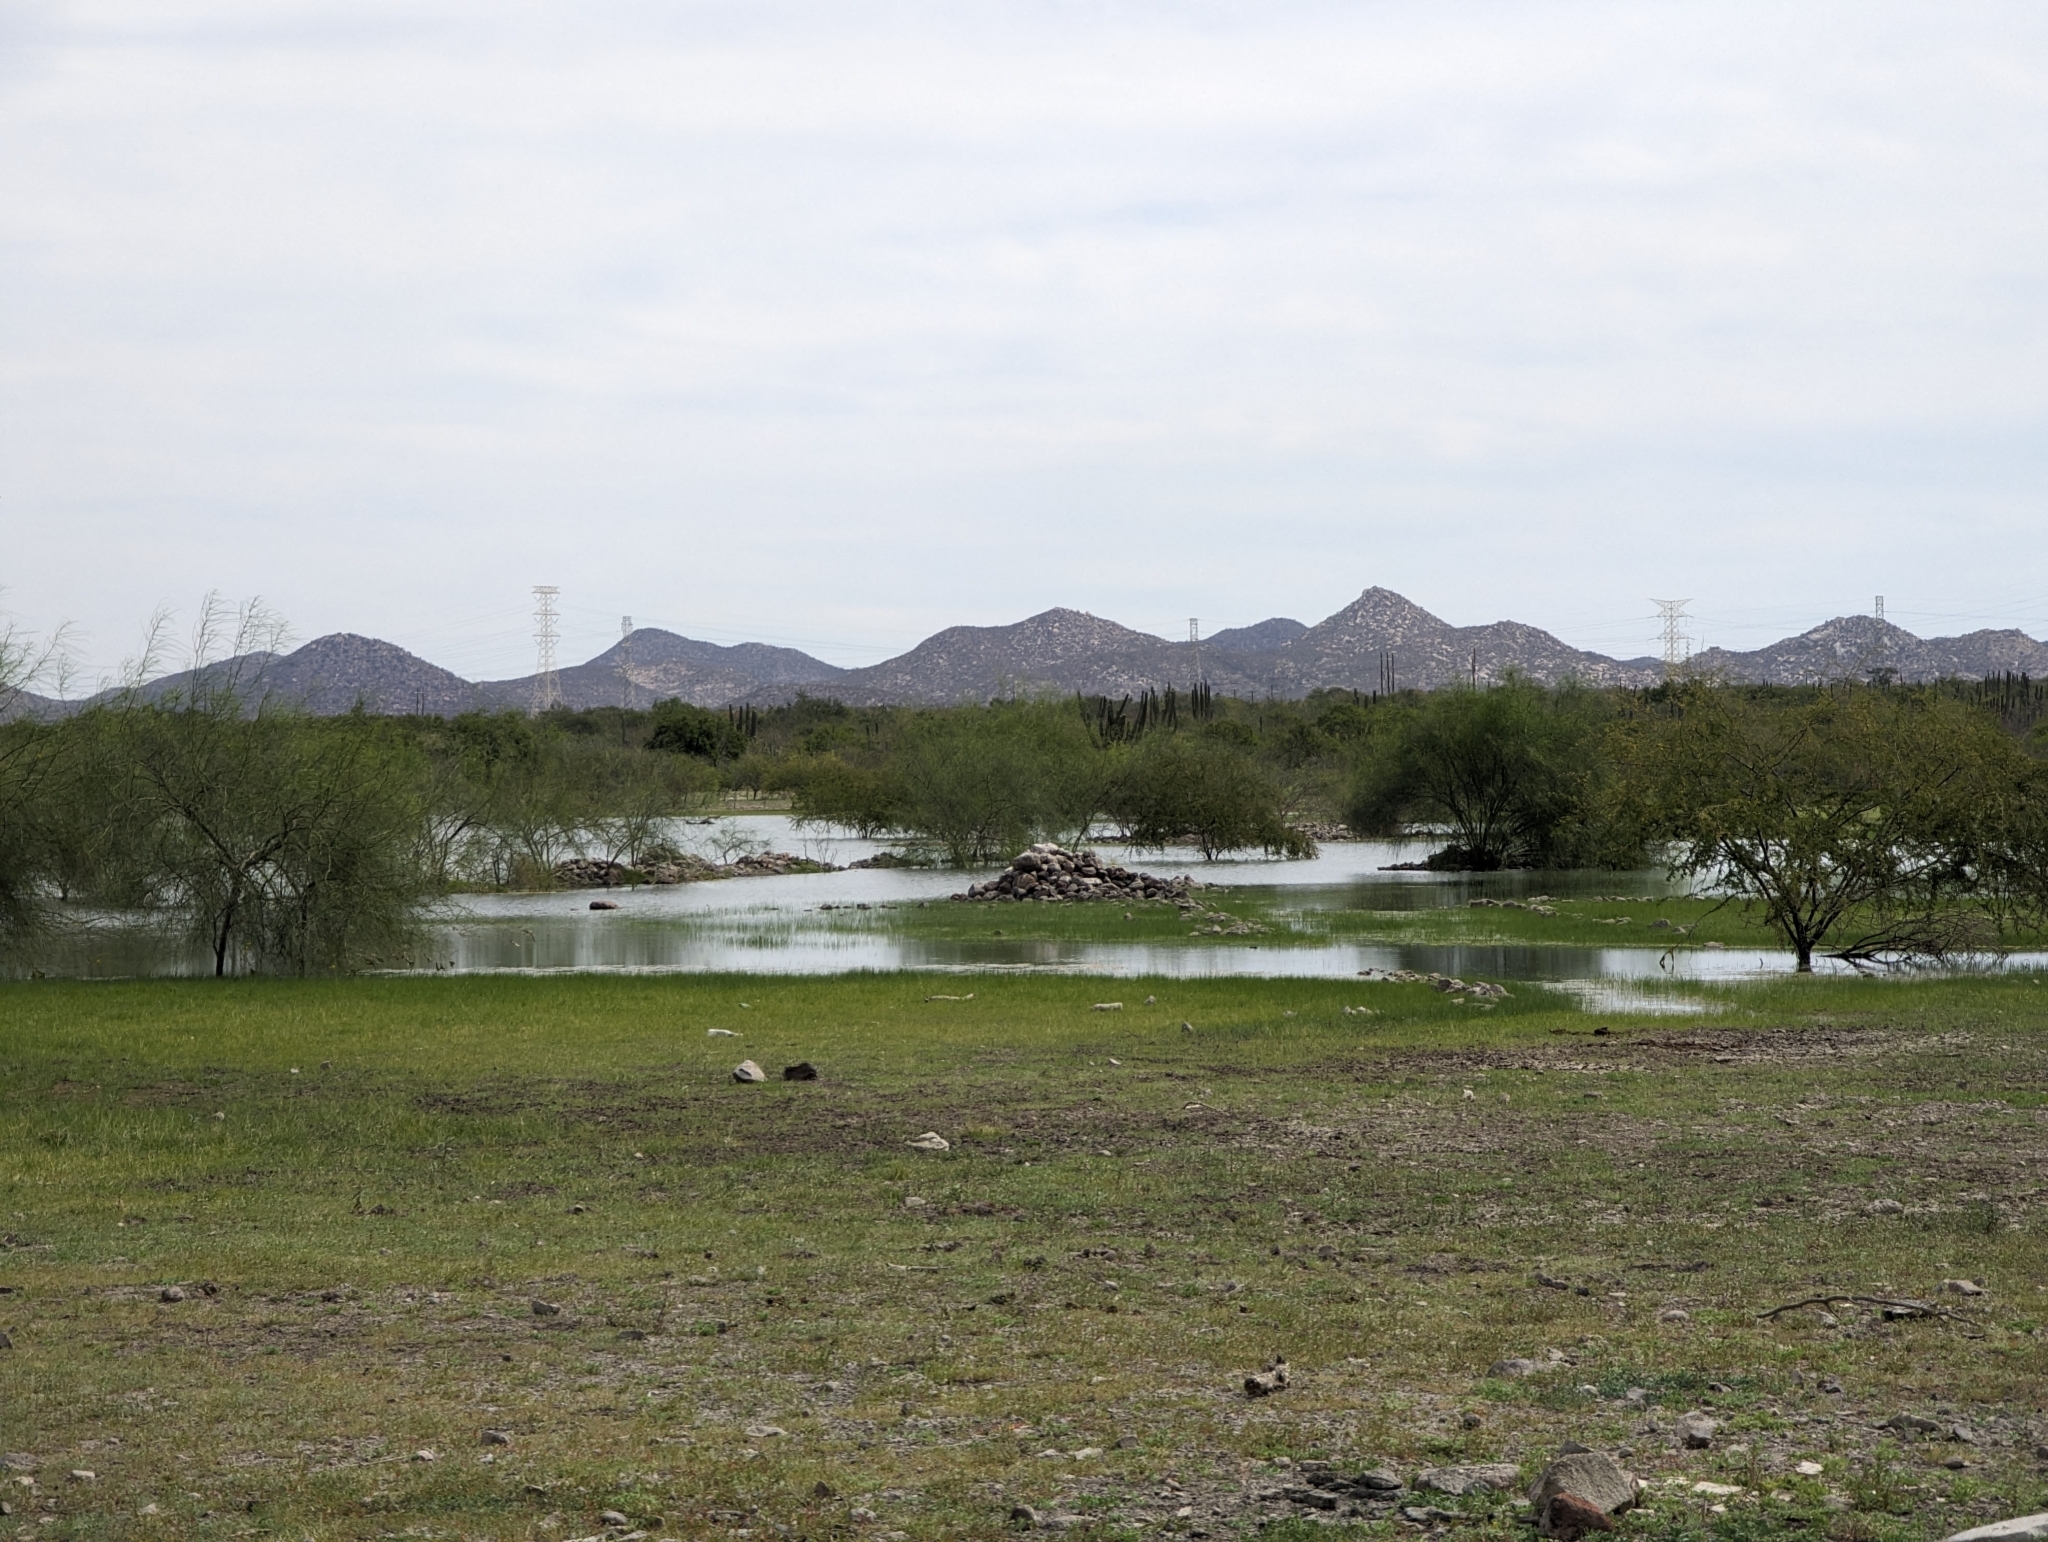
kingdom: Plantae
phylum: Tracheophyta
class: Magnoliopsida
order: Fabales
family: Fabaceae
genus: Parkinsonia
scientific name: Parkinsonia aculeata
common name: Jerusalem thorn
